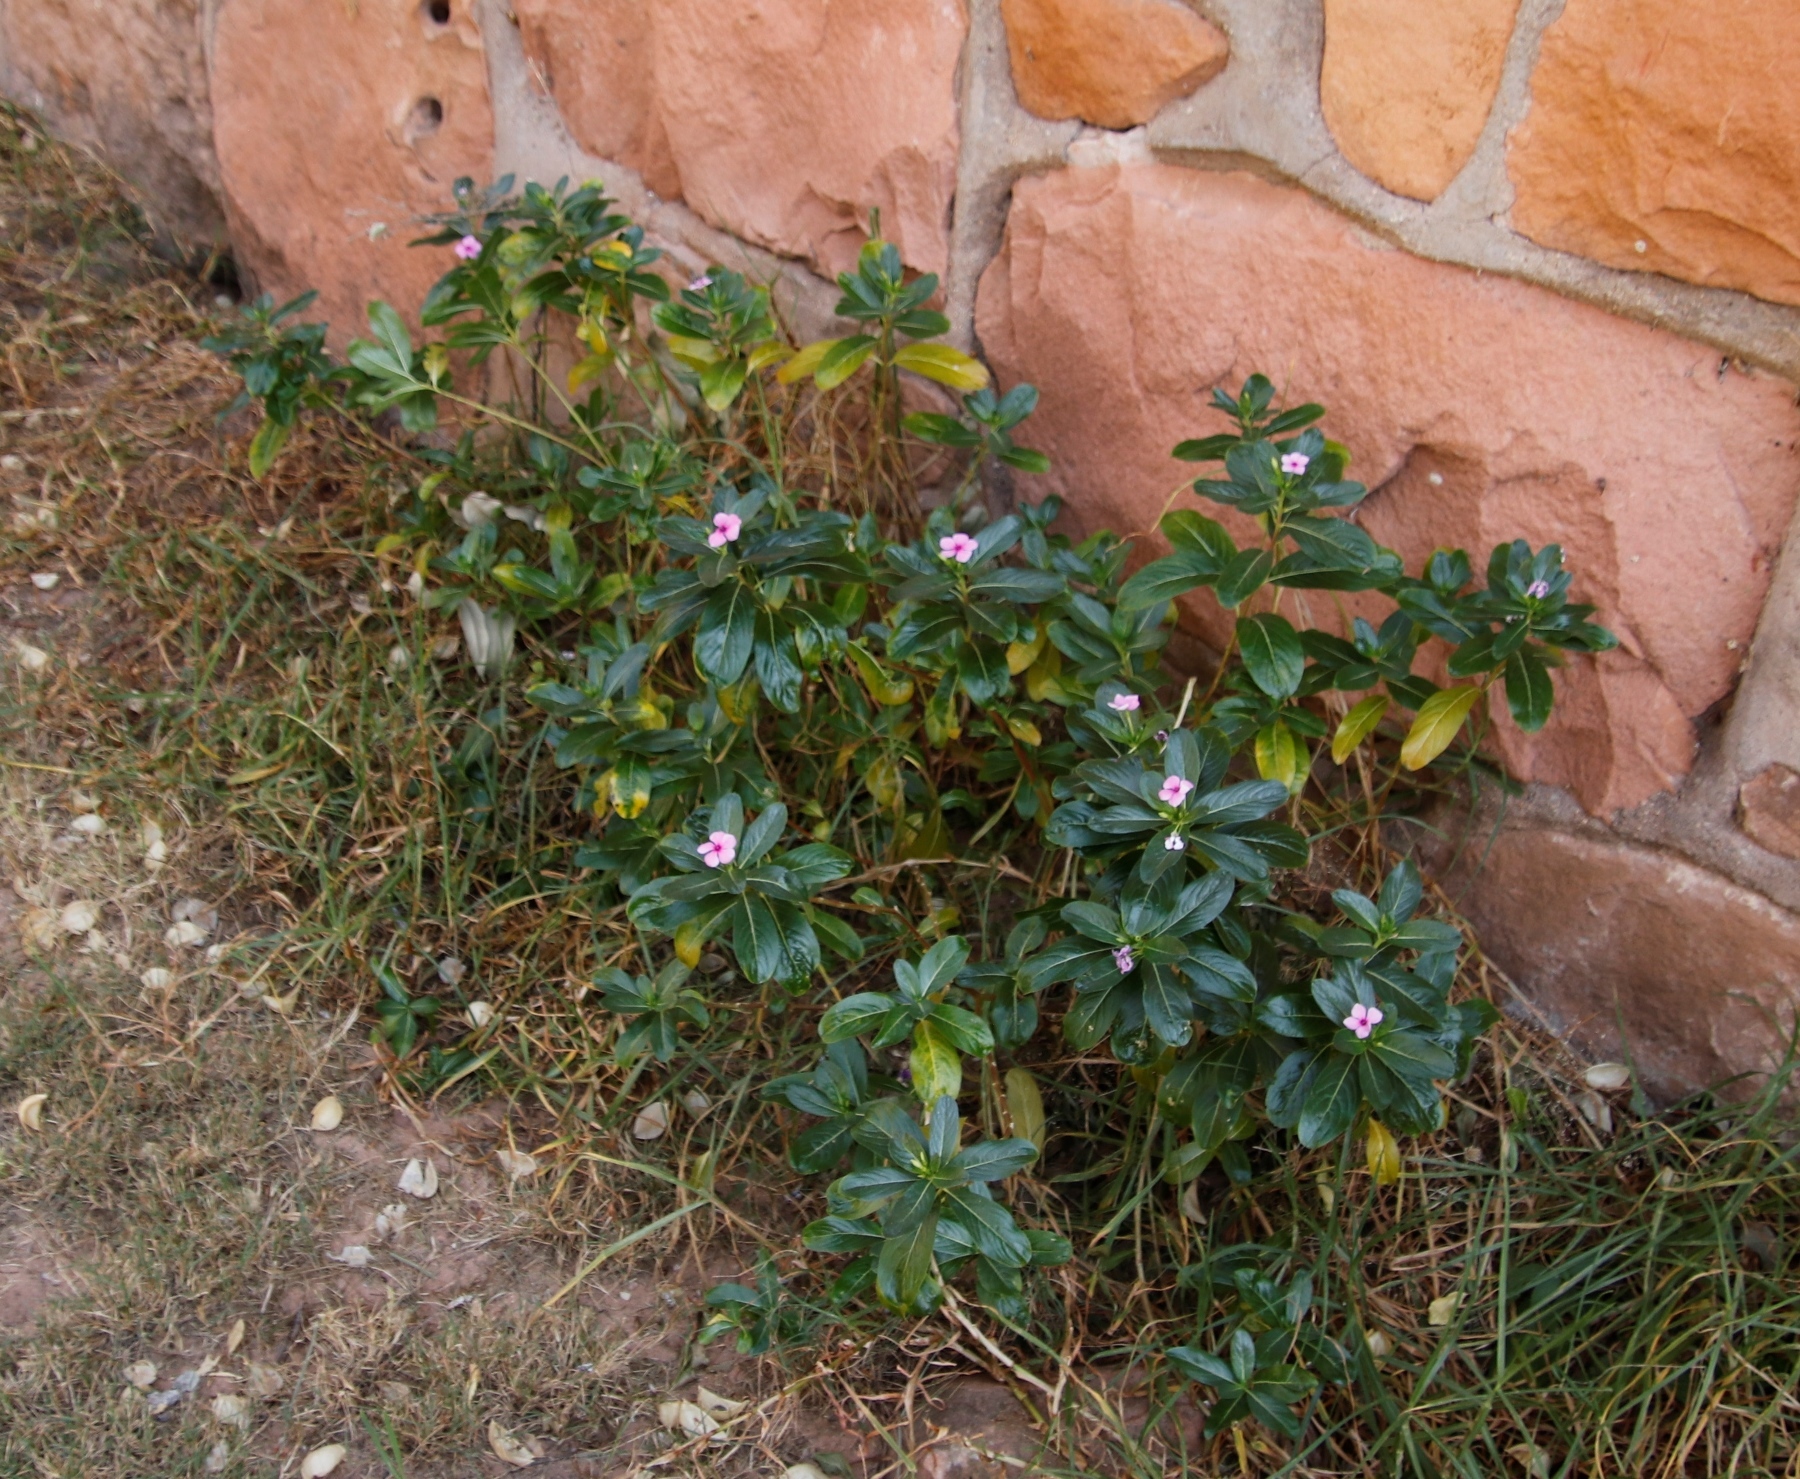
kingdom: Plantae
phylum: Tracheophyta
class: Magnoliopsida
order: Gentianales
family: Apocynaceae
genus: Catharanthus
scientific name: Catharanthus roseus
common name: Madagascar periwinkle
